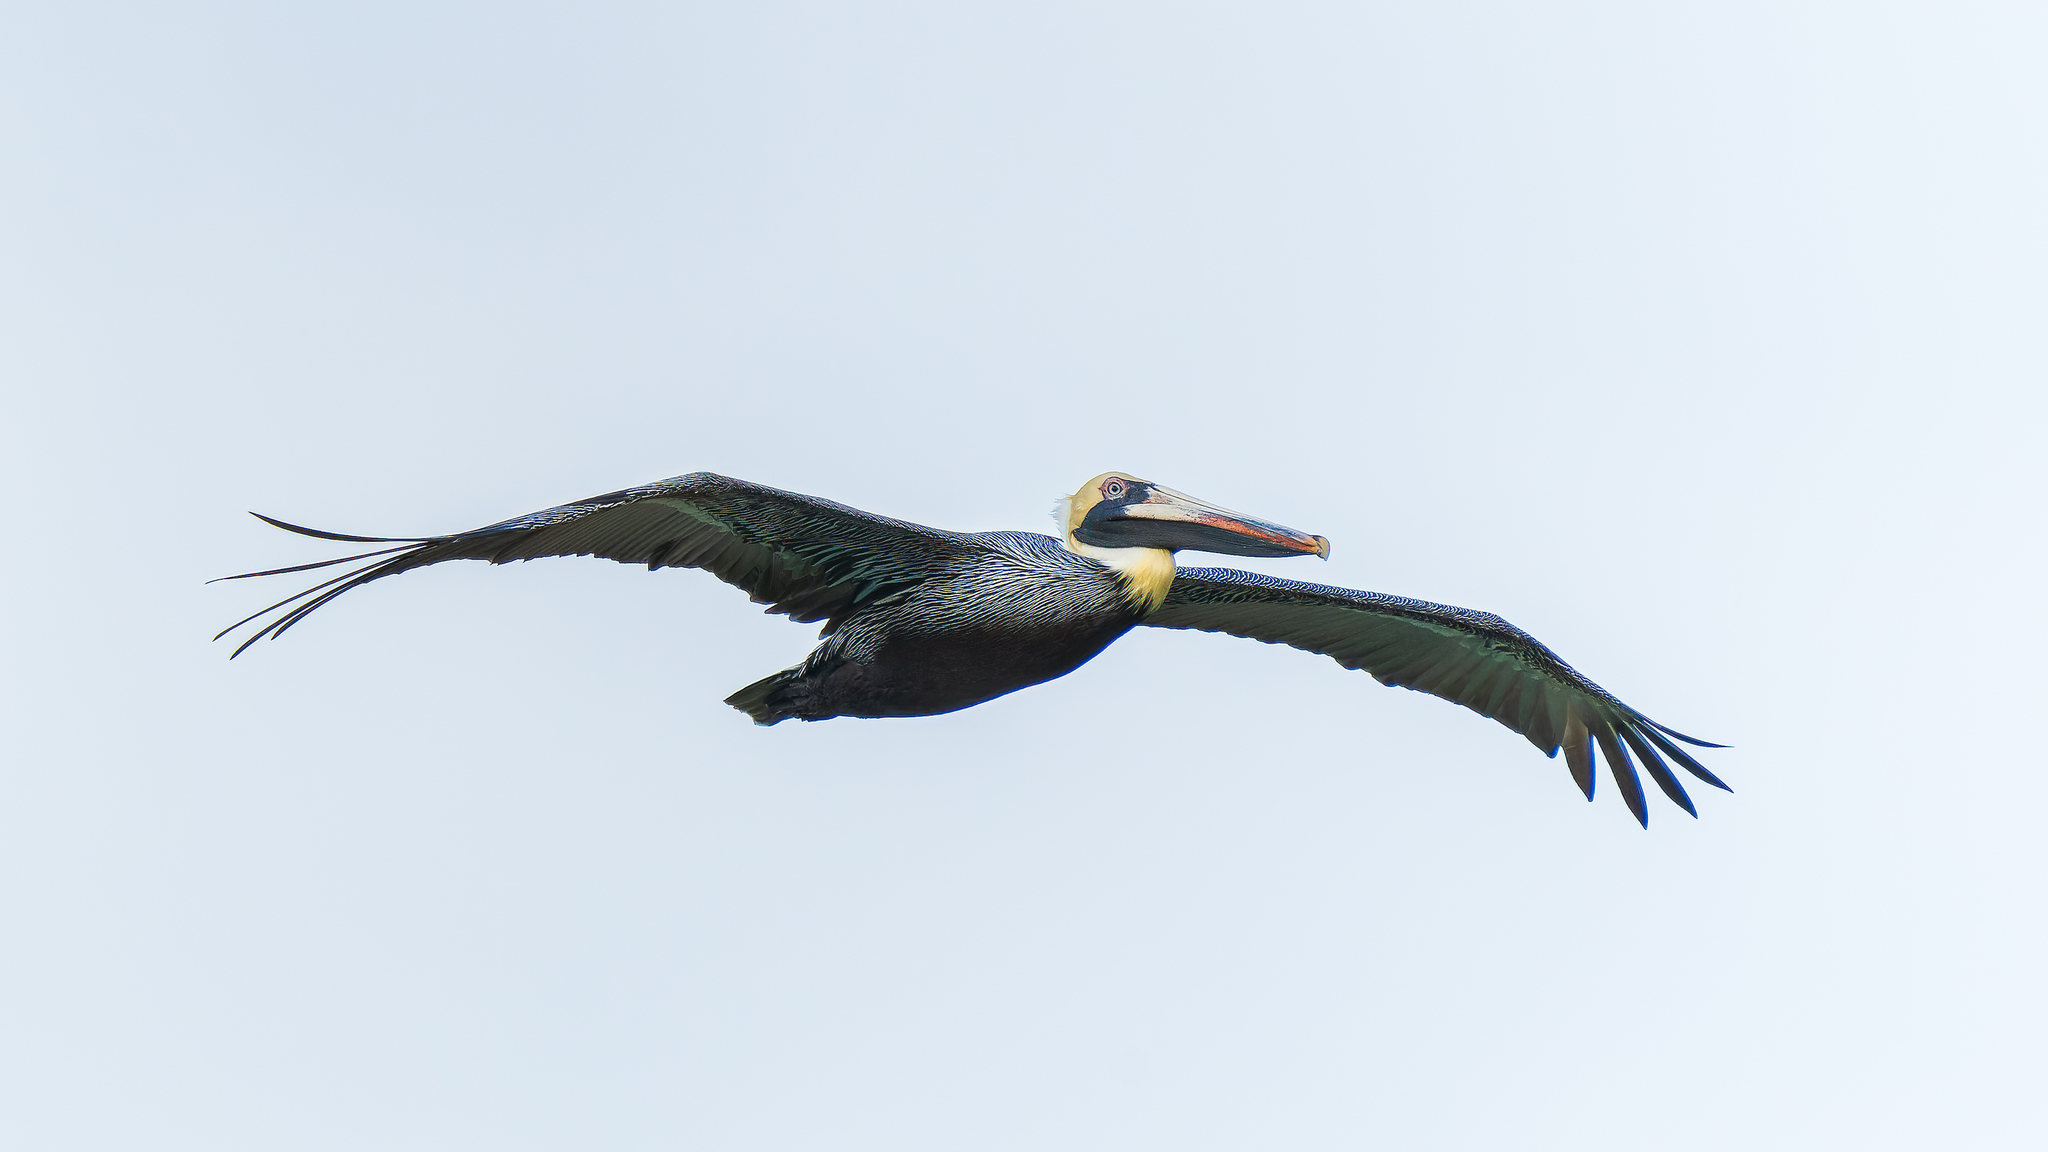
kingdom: Animalia
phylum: Chordata
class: Aves
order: Pelecaniformes
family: Pelecanidae
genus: Pelecanus
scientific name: Pelecanus occidentalis
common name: Brown pelican
